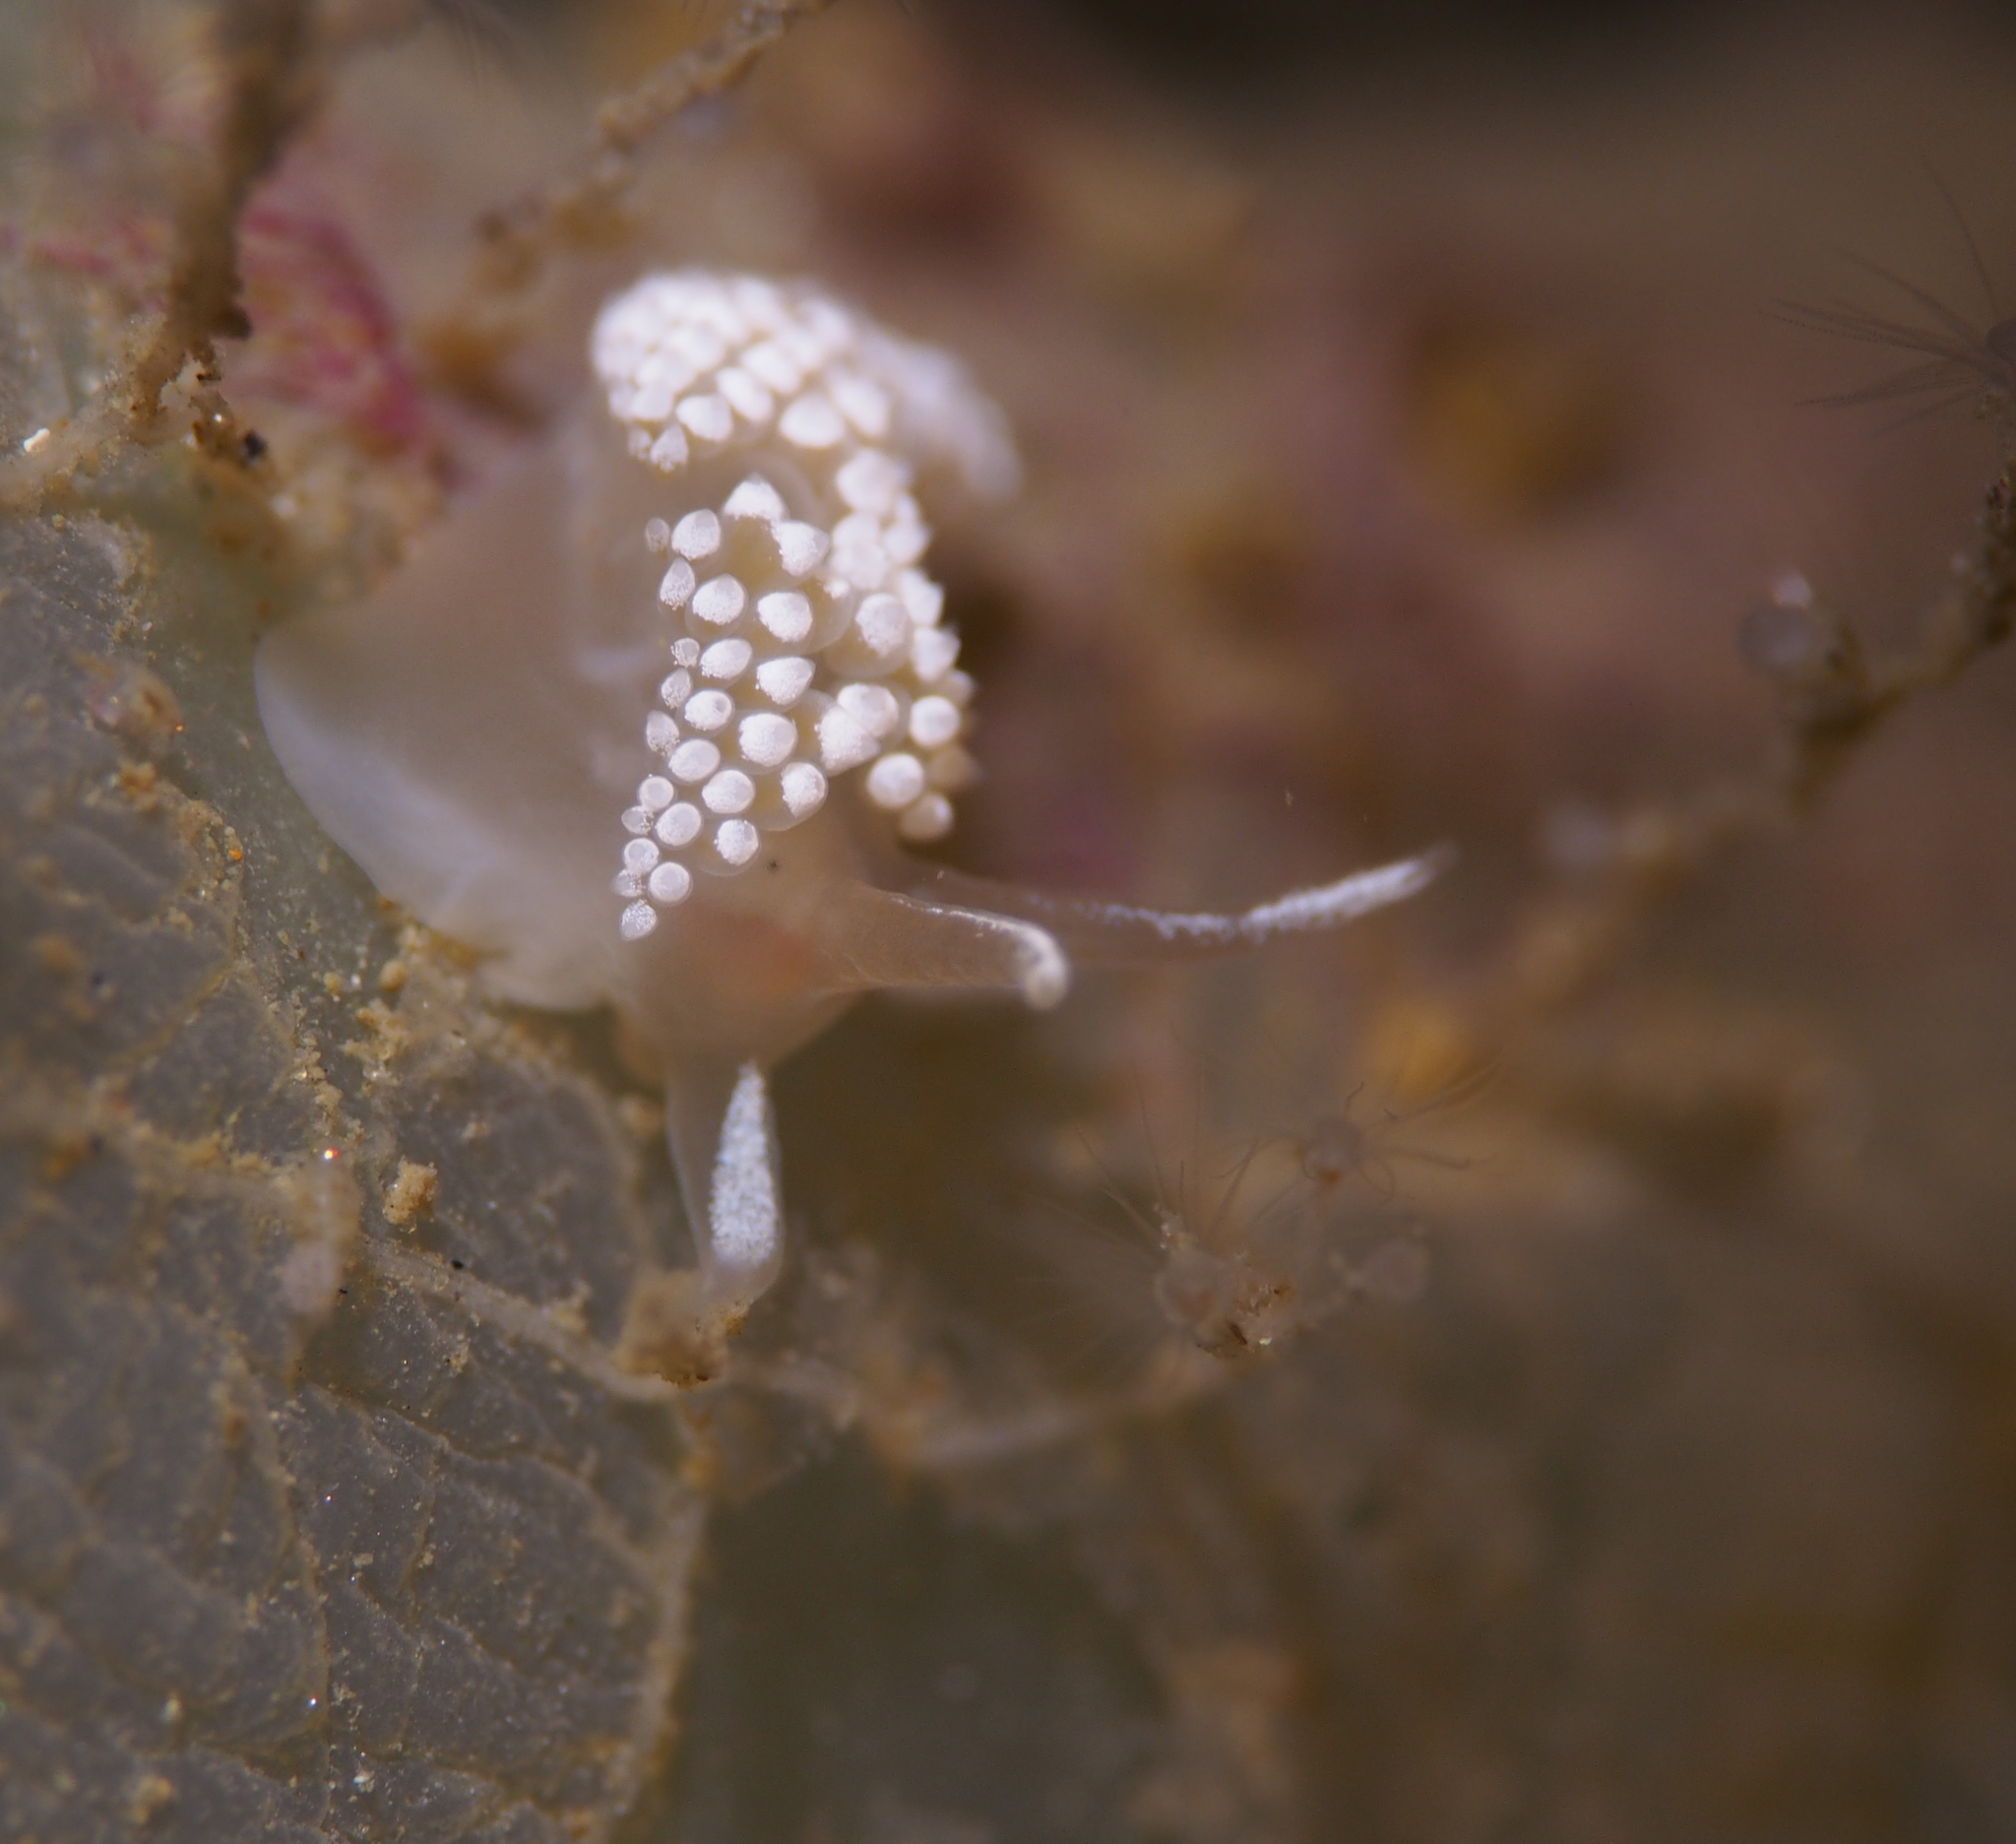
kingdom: Animalia
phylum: Mollusca
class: Gastropoda
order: Nudibranchia
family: Coryphellidae
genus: Coryphella
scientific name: Coryphella verrucosa
